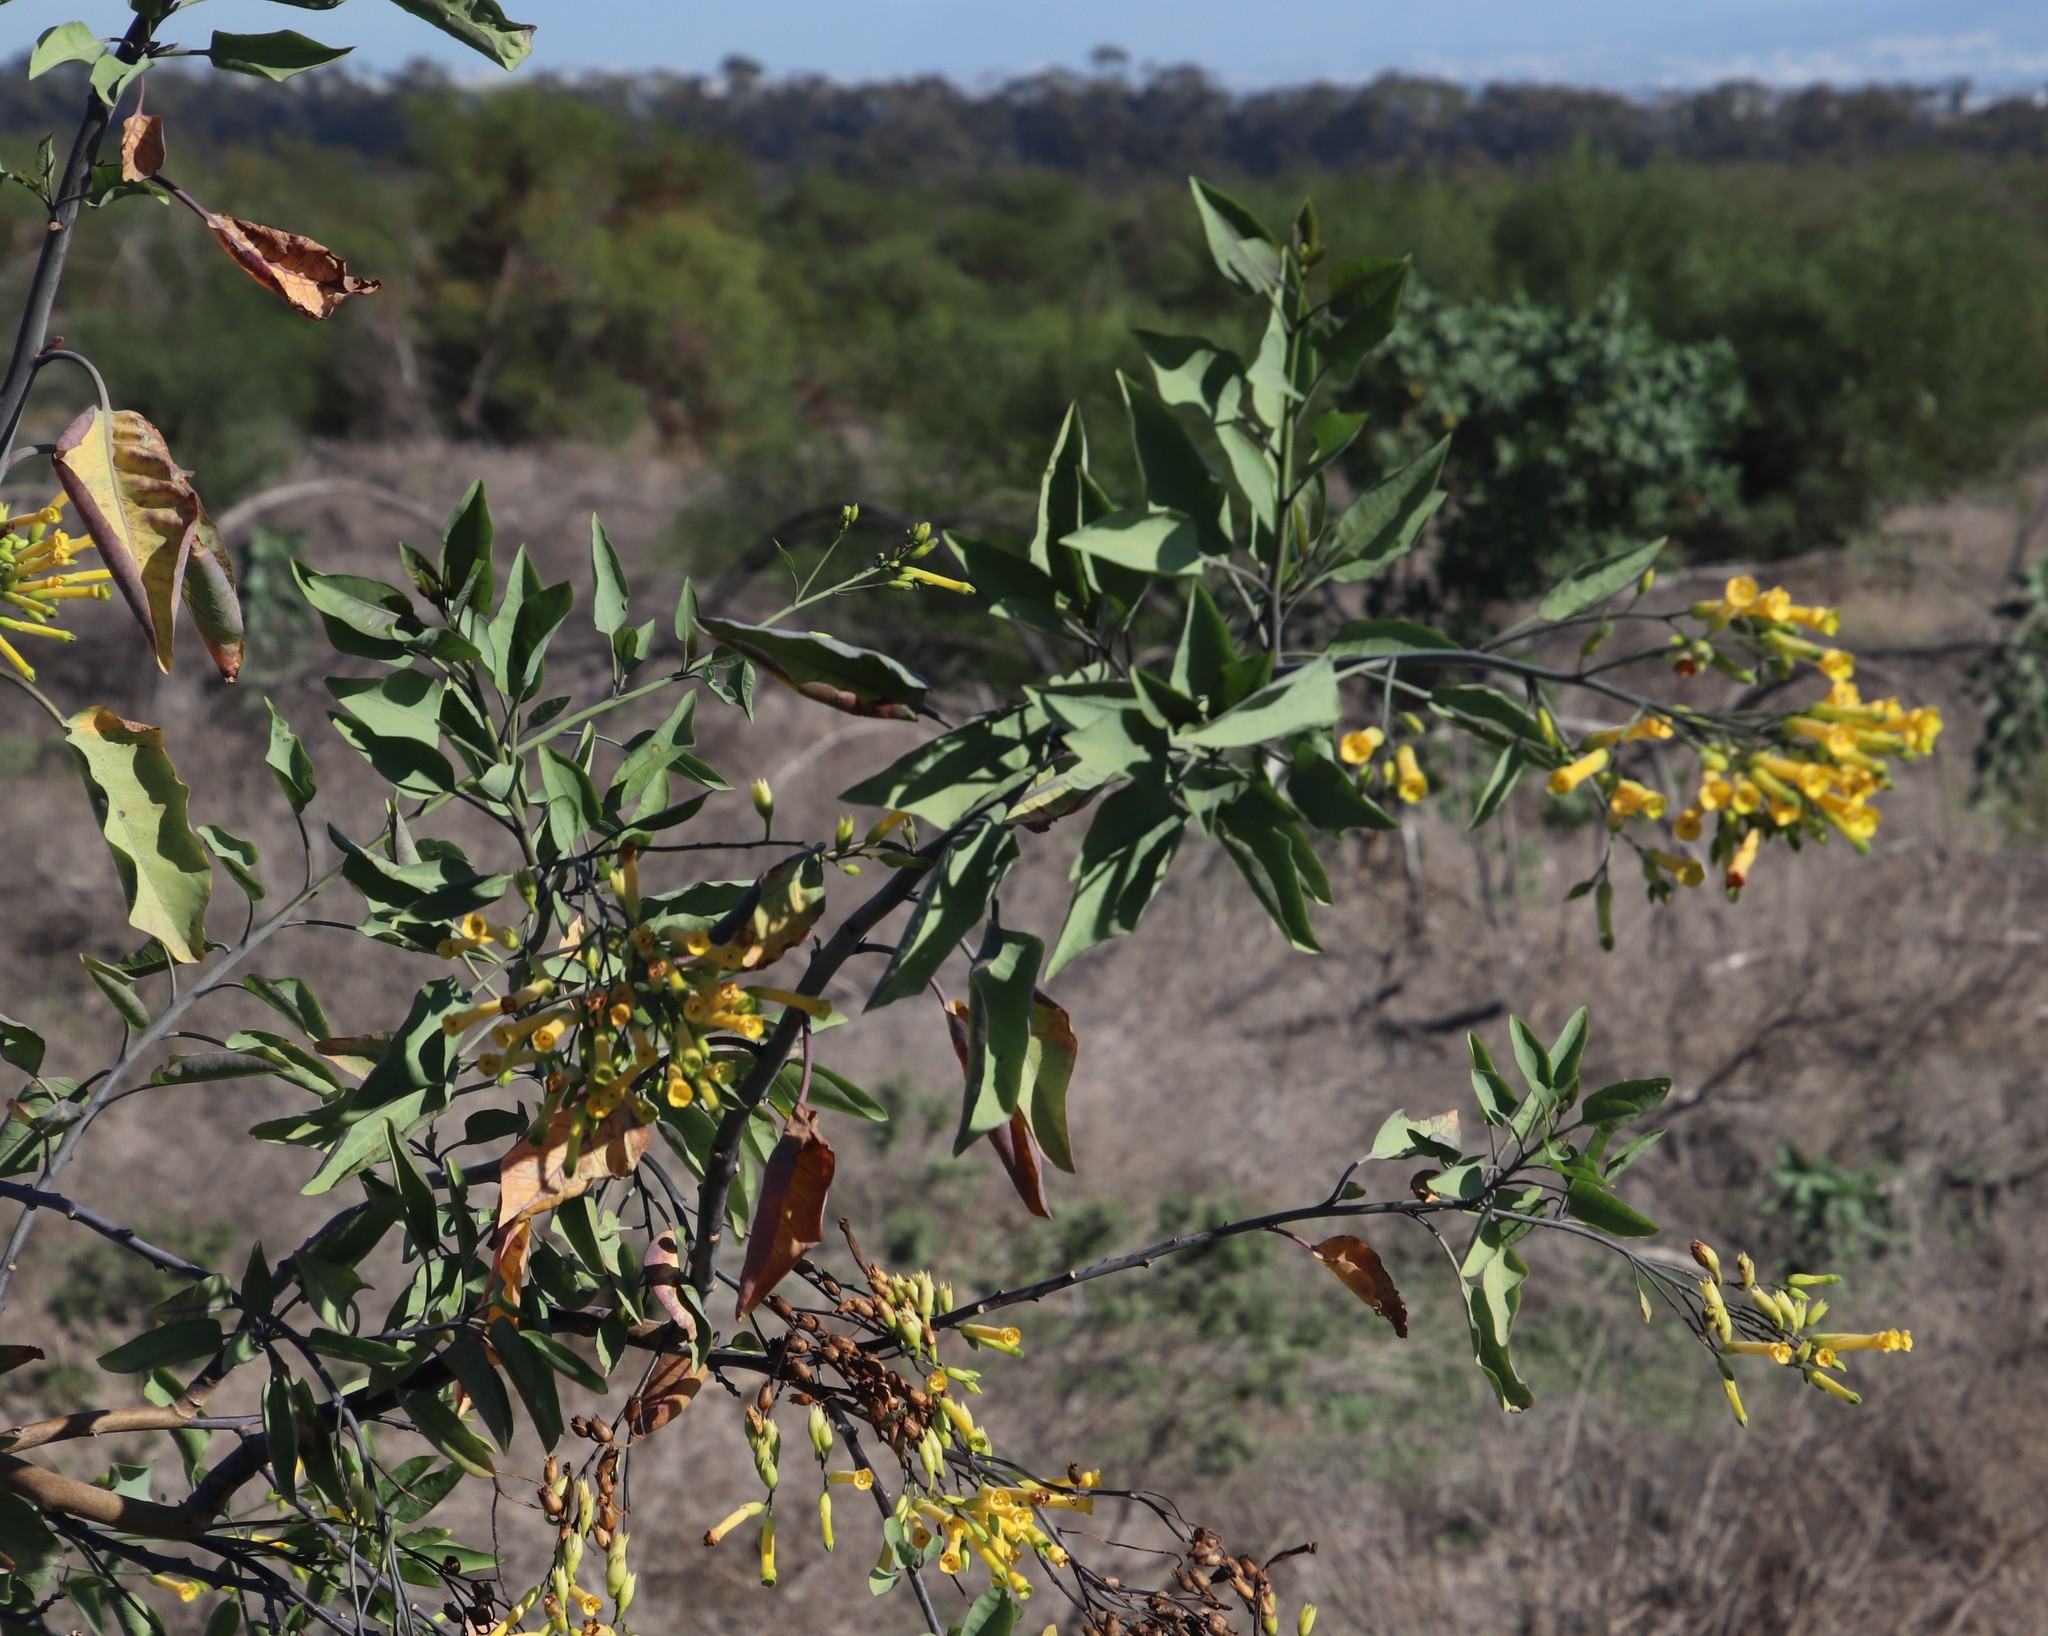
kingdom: Plantae
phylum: Tracheophyta
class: Magnoliopsida
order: Solanales
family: Solanaceae
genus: Nicotiana
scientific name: Nicotiana glauca
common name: Tree tobacco
